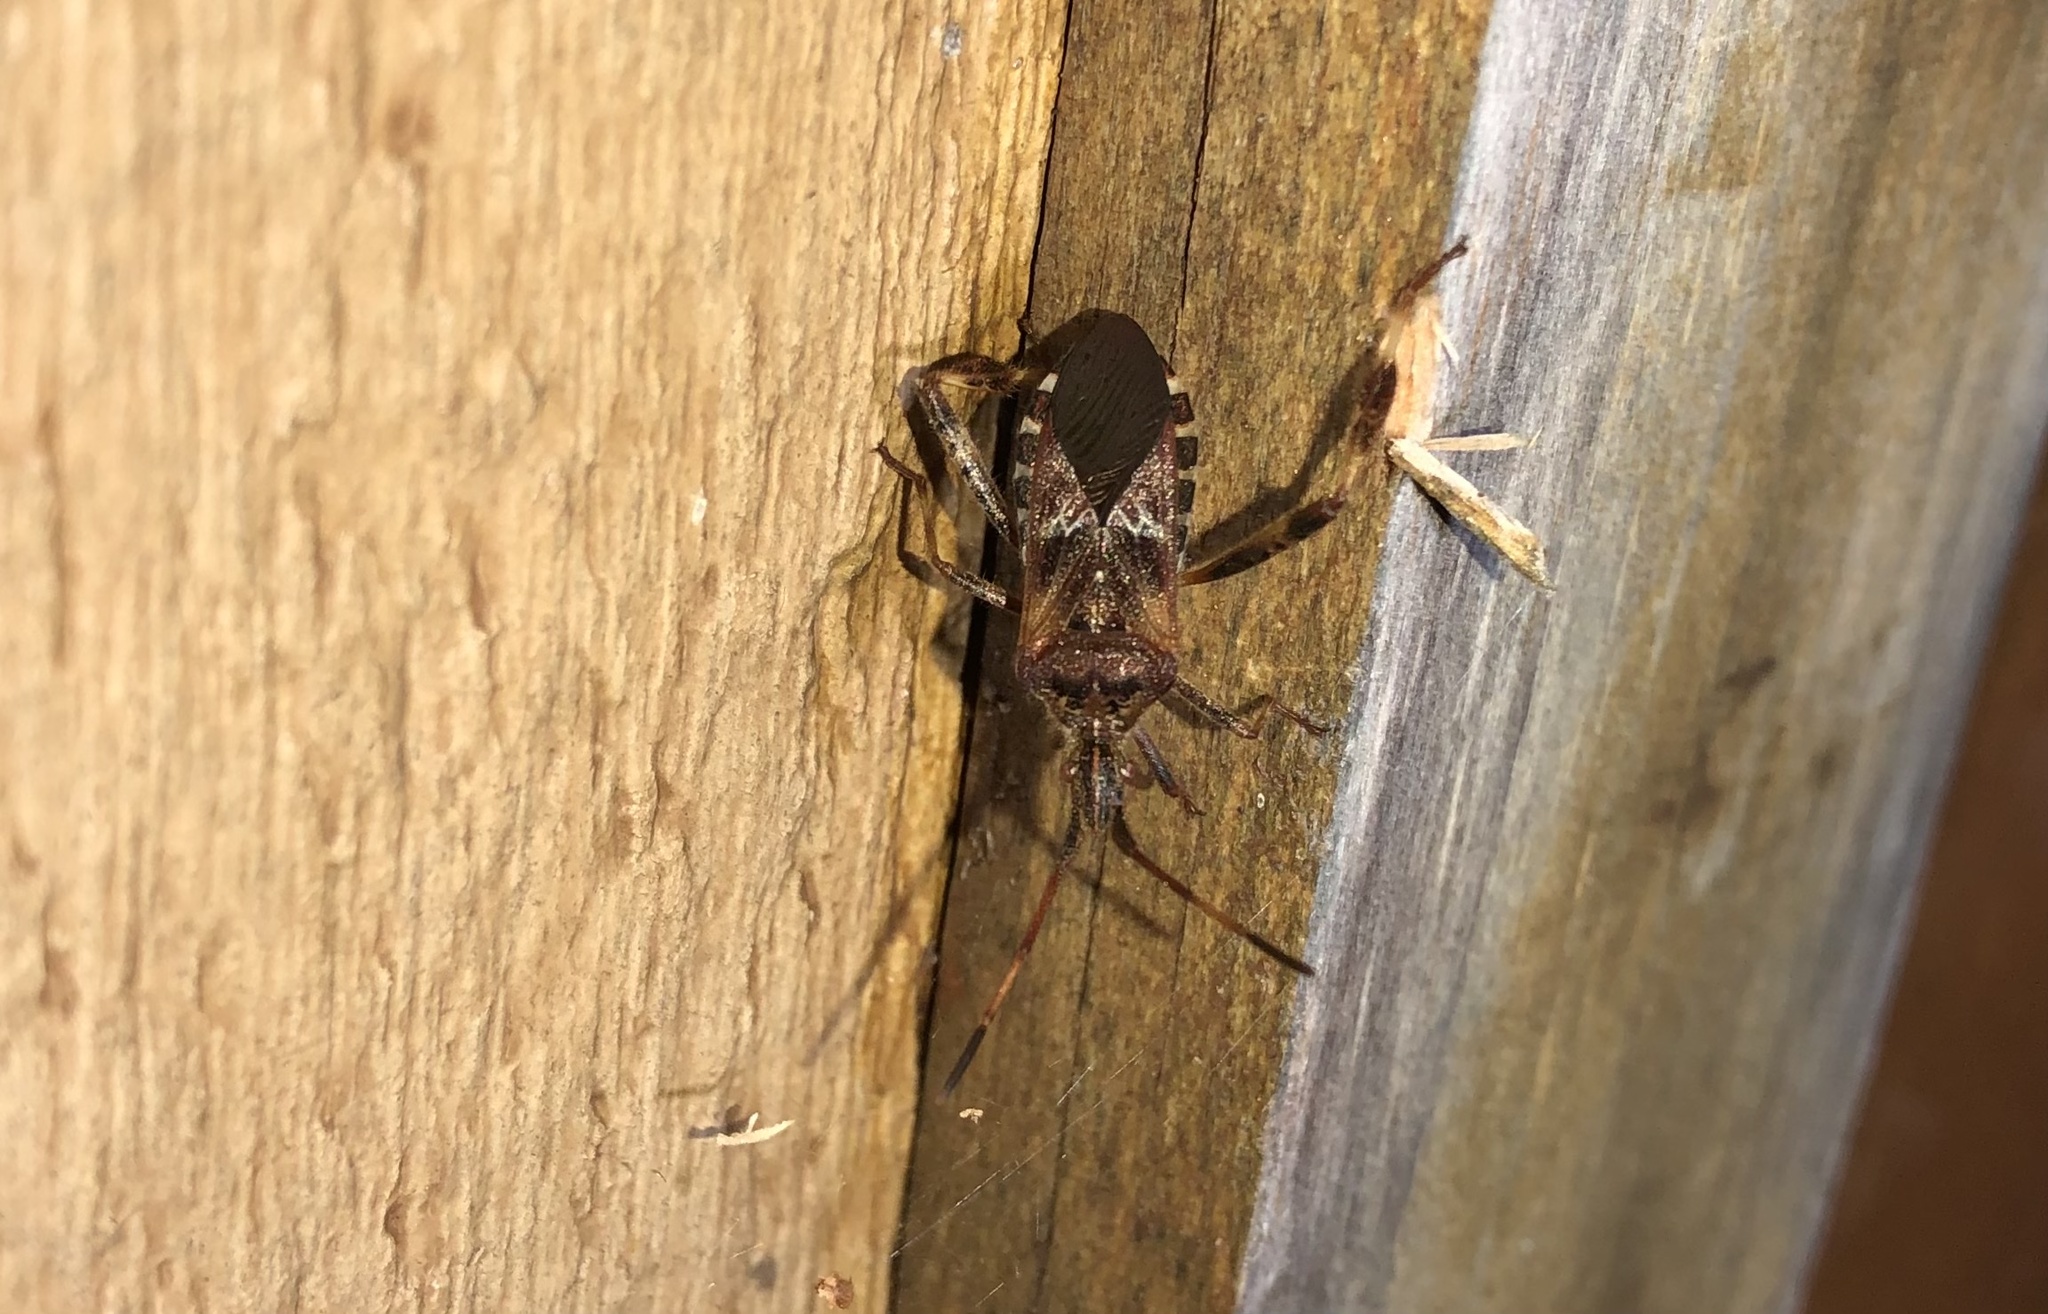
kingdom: Animalia
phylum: Arthropoda
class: Insecta
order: Hemiptera
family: Coreidae
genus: Leptoglossus
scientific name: Leptoglossus occidentalis
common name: Western conifer-seed bug
